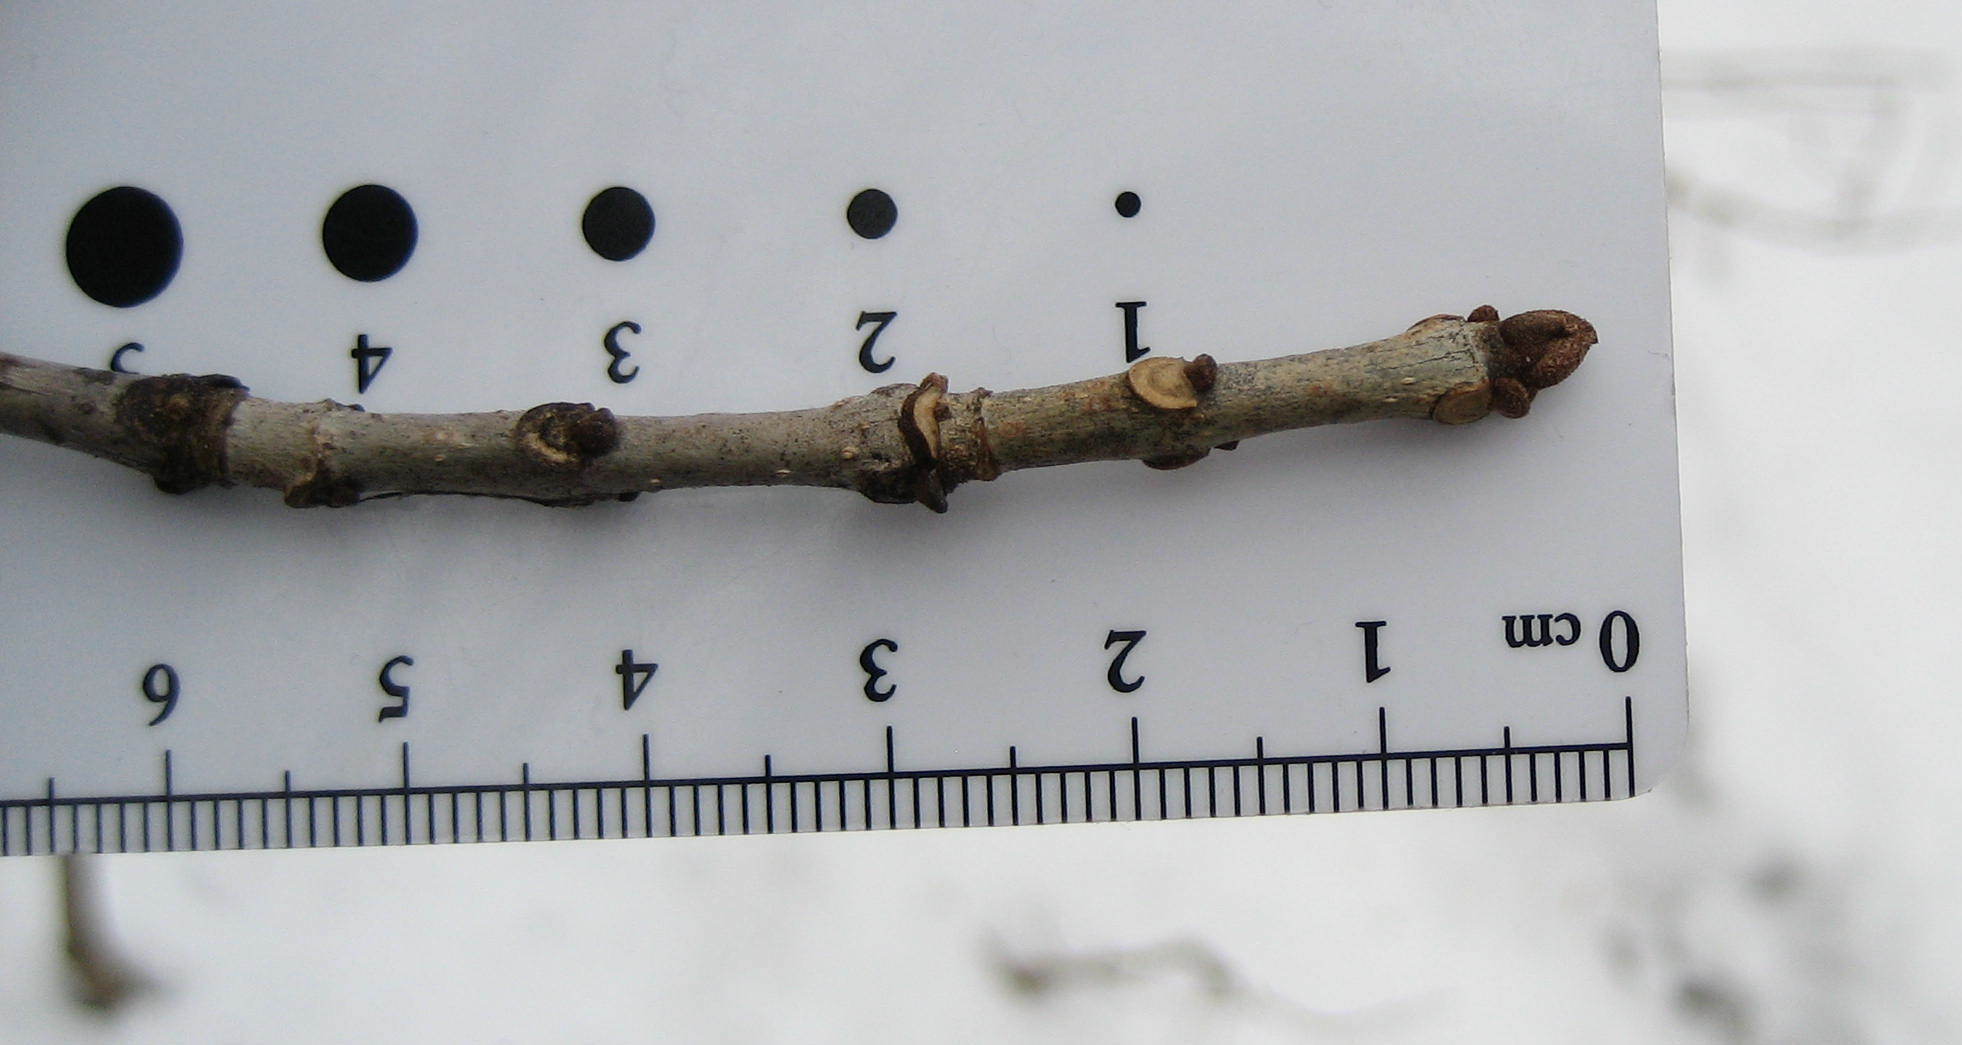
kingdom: Plantae
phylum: Tracheophyta
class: Magnoliopsida
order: Lamiales
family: Oleaceae
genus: Fraxinus
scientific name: Fraxinus americana
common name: White ash
